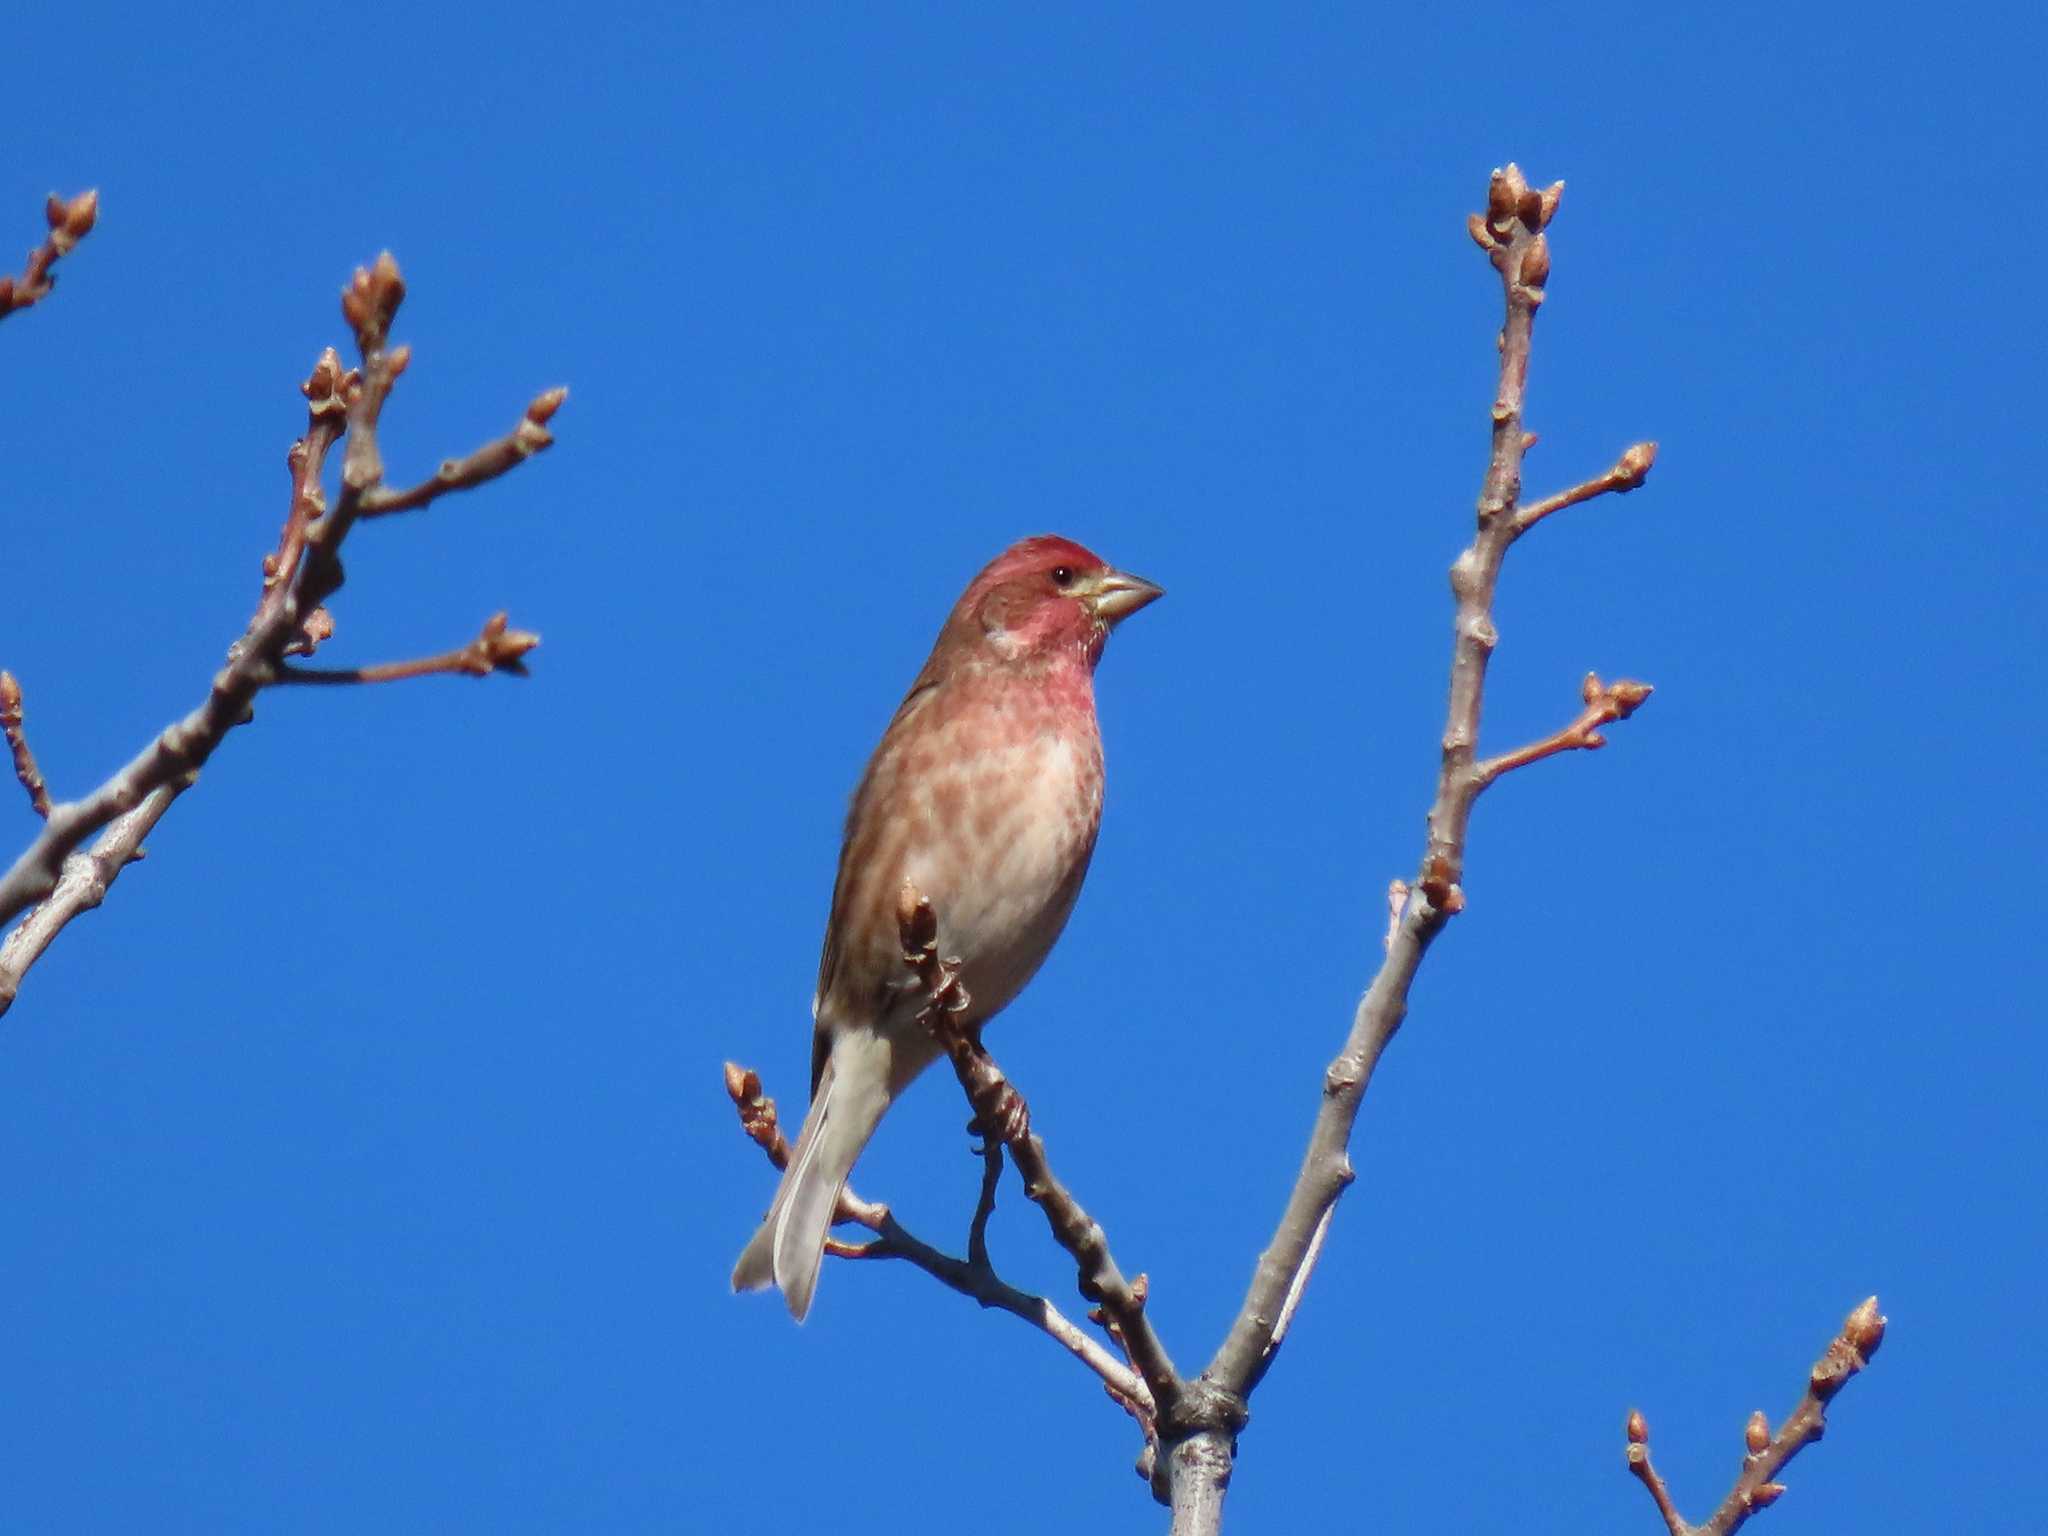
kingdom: Animalia
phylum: Chordata
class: Aves
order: Passeriformes
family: Fringillidae
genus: Haemorhous
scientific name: Haemorhous purpureus
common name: Purple finch
